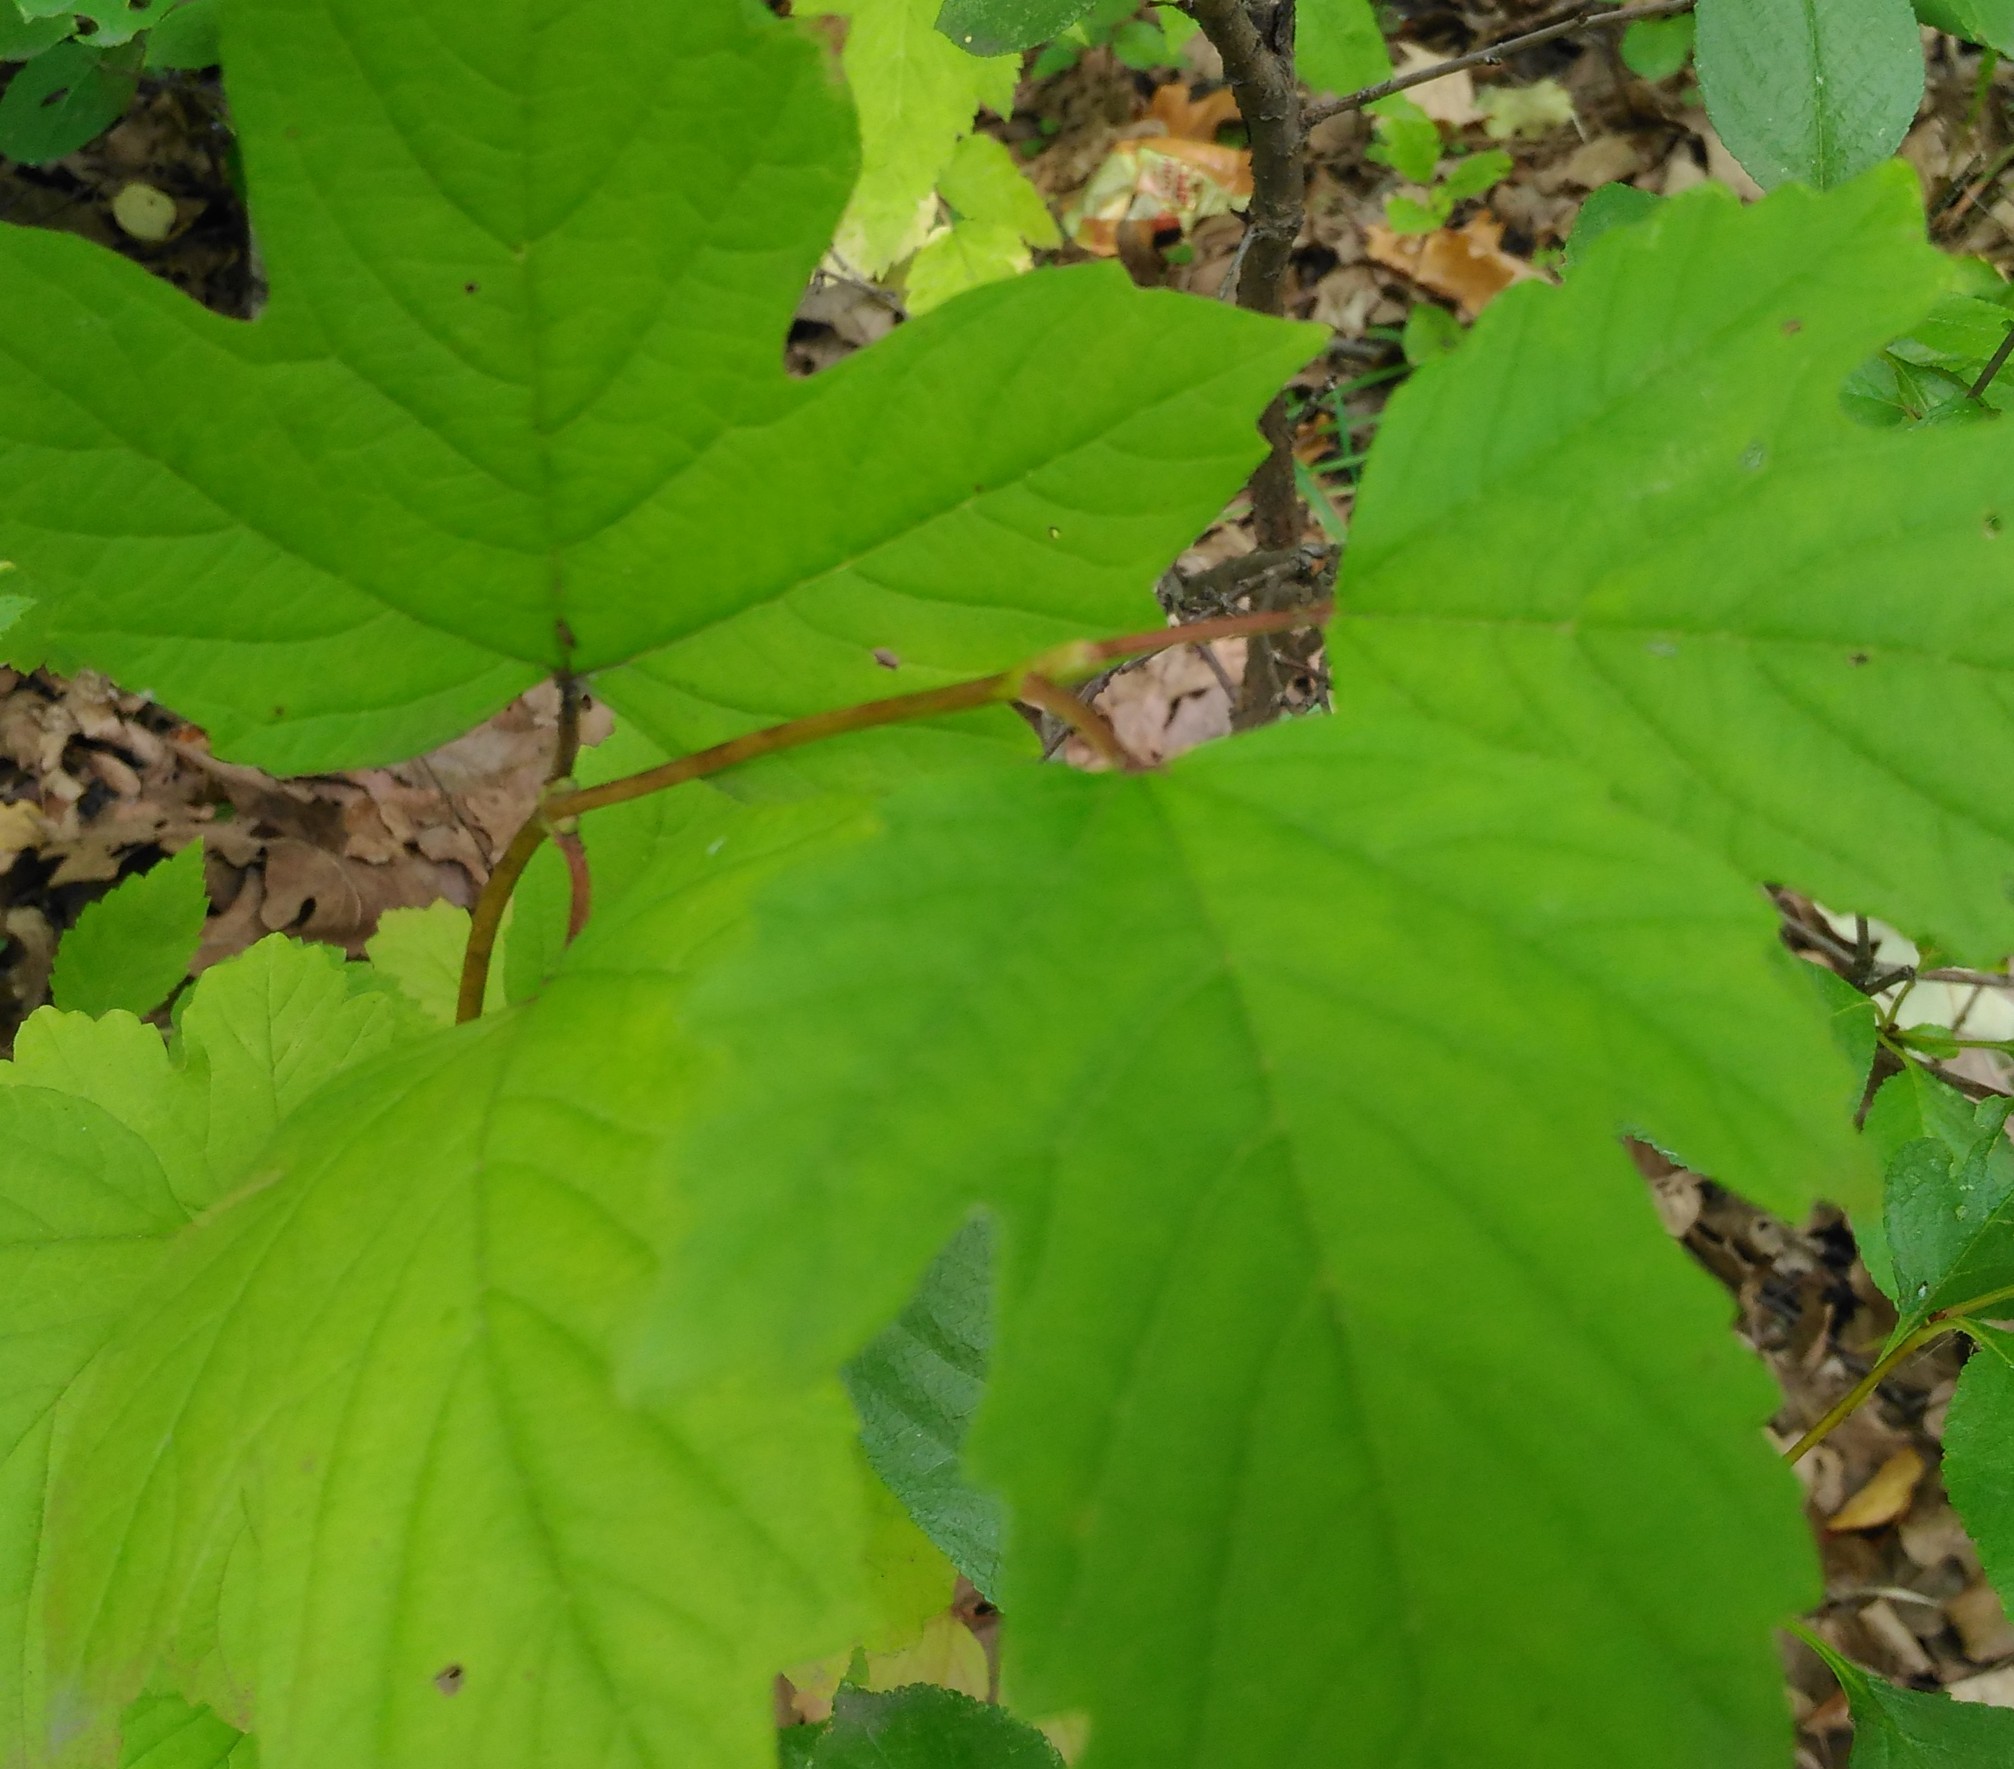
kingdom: Plantae
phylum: Tracheophyta
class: Magnoliopsida
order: Dipsacales
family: Viburnaceae
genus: Viburnum
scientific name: Viburnum opulus
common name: Guelder-rose
